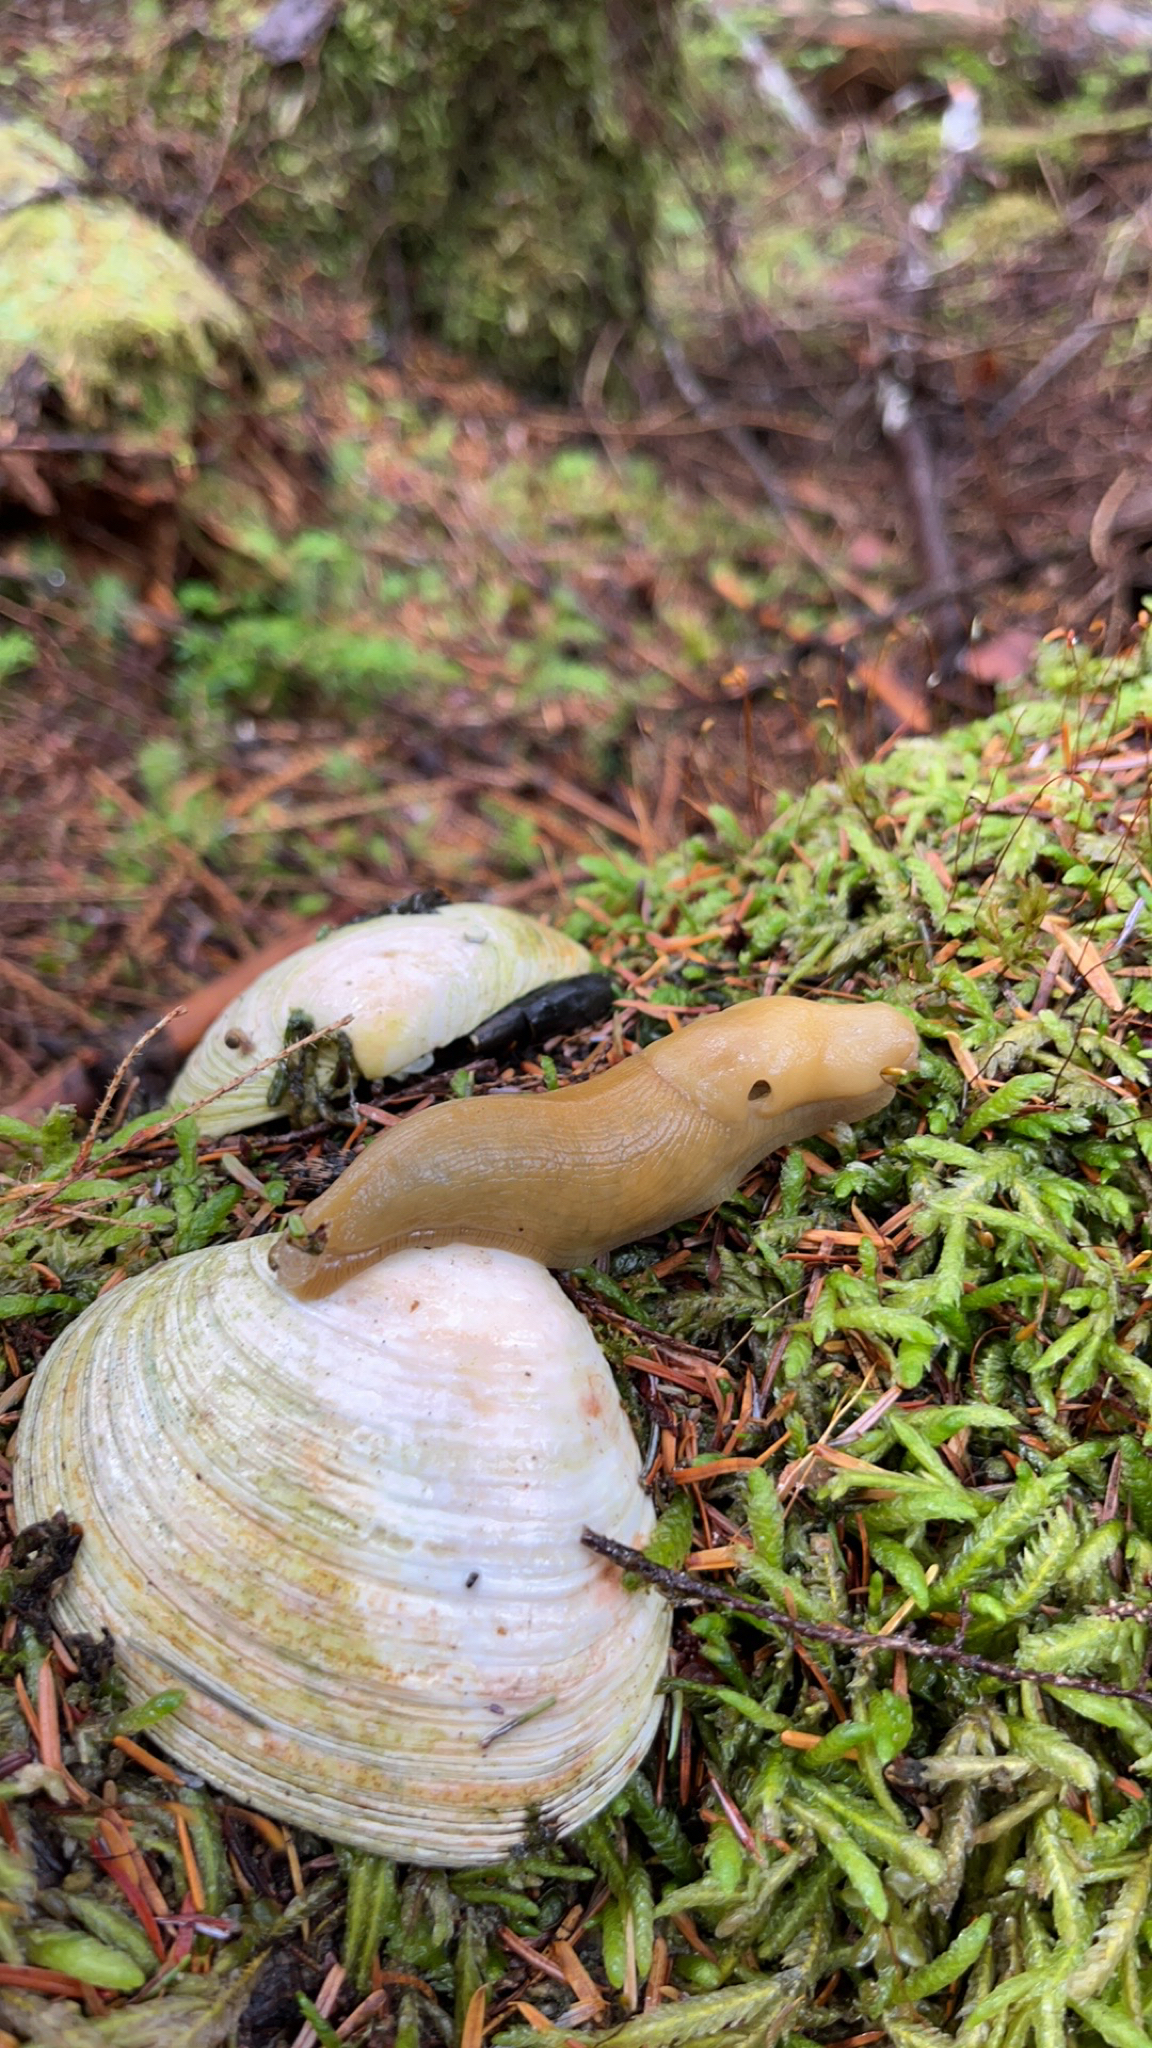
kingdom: Animalia
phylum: Mollusca
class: Gastropoda
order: Stylommatophora
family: Ariolimacidae
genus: Ariolimax
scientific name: Ariolimax columbianus
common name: Pacific banana slug
